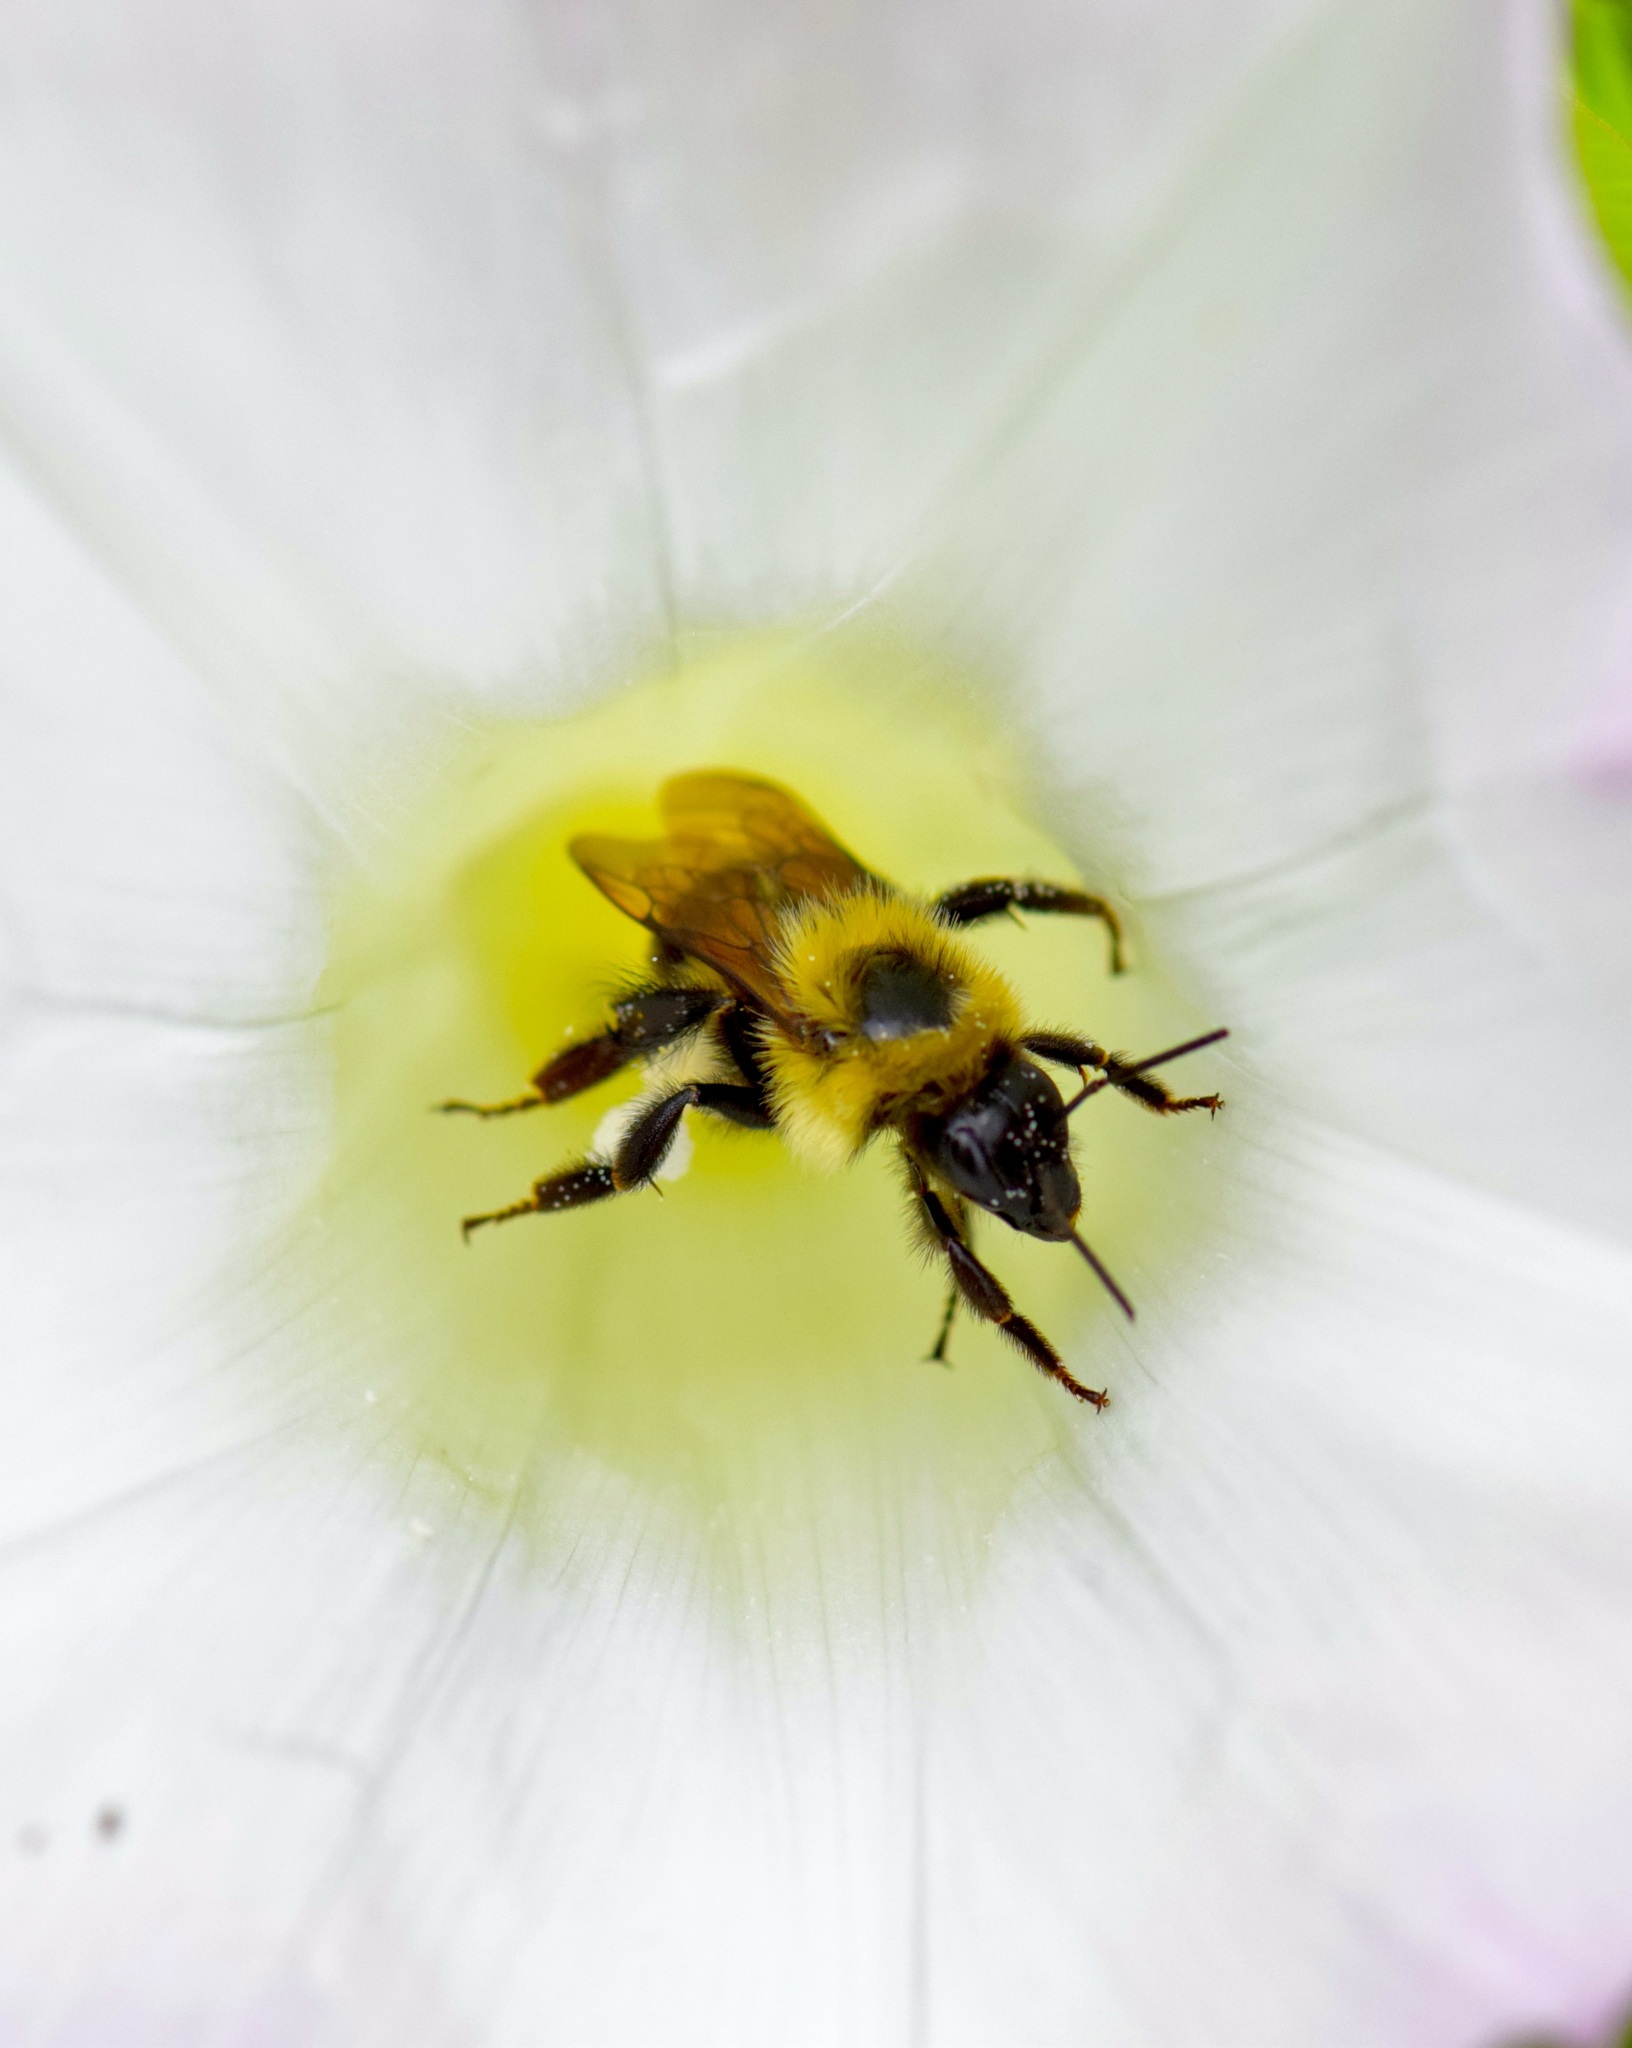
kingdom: Animalia
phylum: Arthropoda
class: Insecta
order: Hymenoptera
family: Apidae
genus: Bombus
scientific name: Bombus bimaculatus
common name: Two-spotted bumble bee
